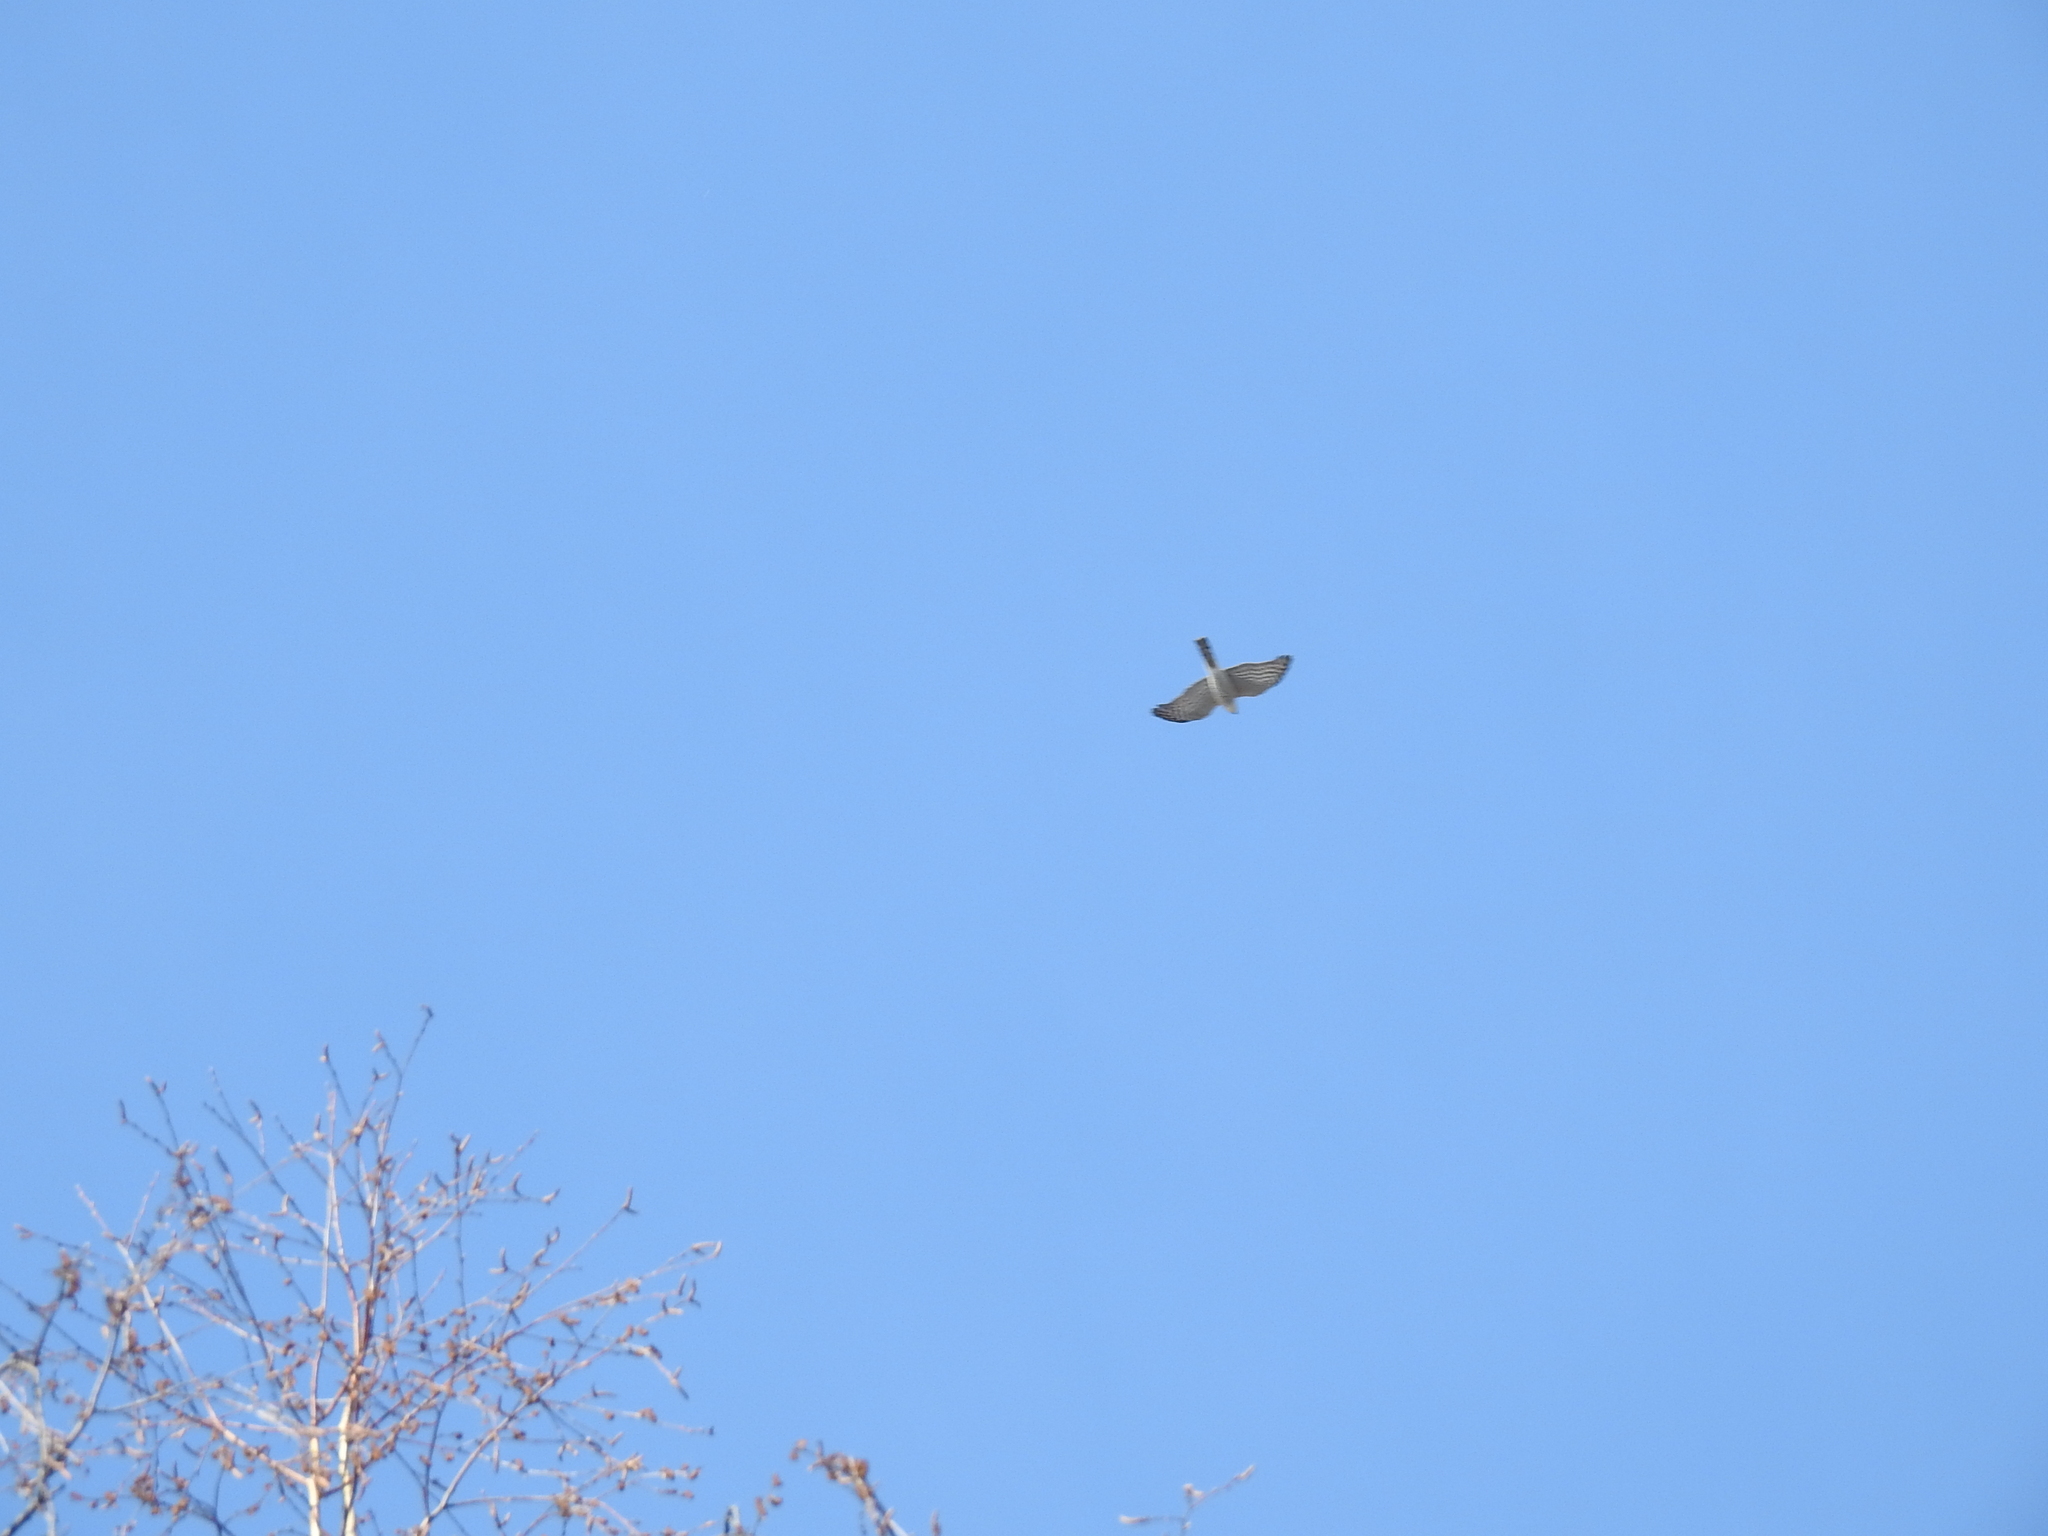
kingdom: Animalia
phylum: Chordata
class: Aves
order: Accipitriformes
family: Accipitridae
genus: Accipiter
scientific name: Accipiter nisus
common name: Eurasian sparrowhawk
